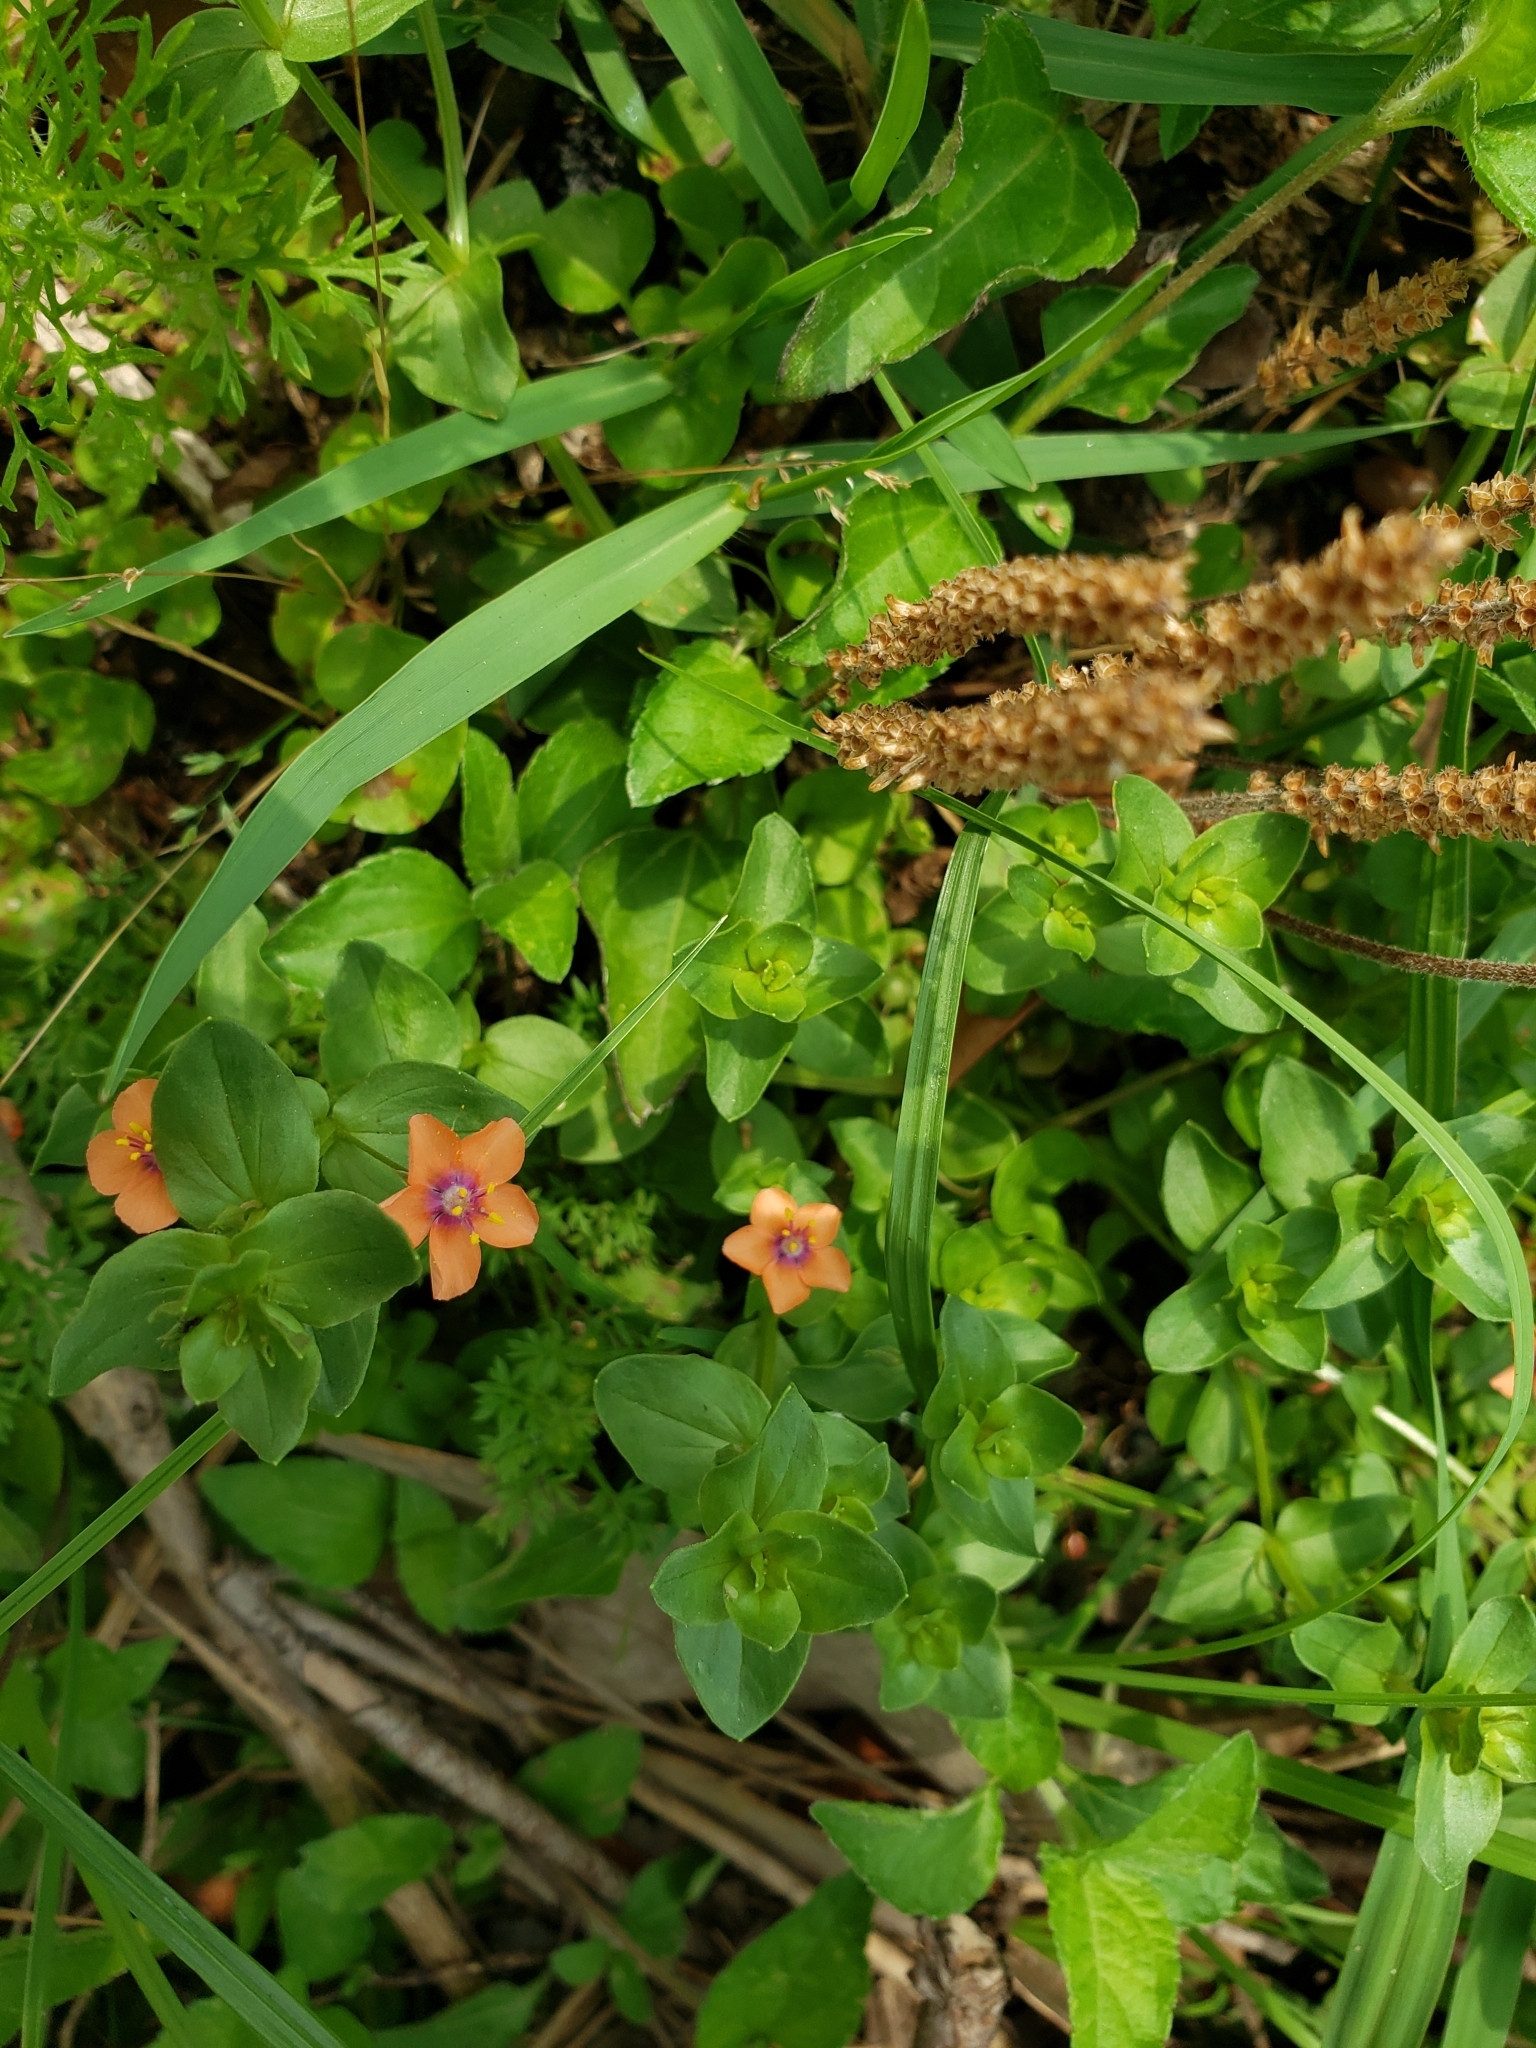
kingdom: Plantae
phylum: Tracheophyta
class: Magnoliopsida
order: Ericales
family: Primulaceae
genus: Lysimachia
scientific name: Lysimachia arvensis
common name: Scarlet pimpernel
